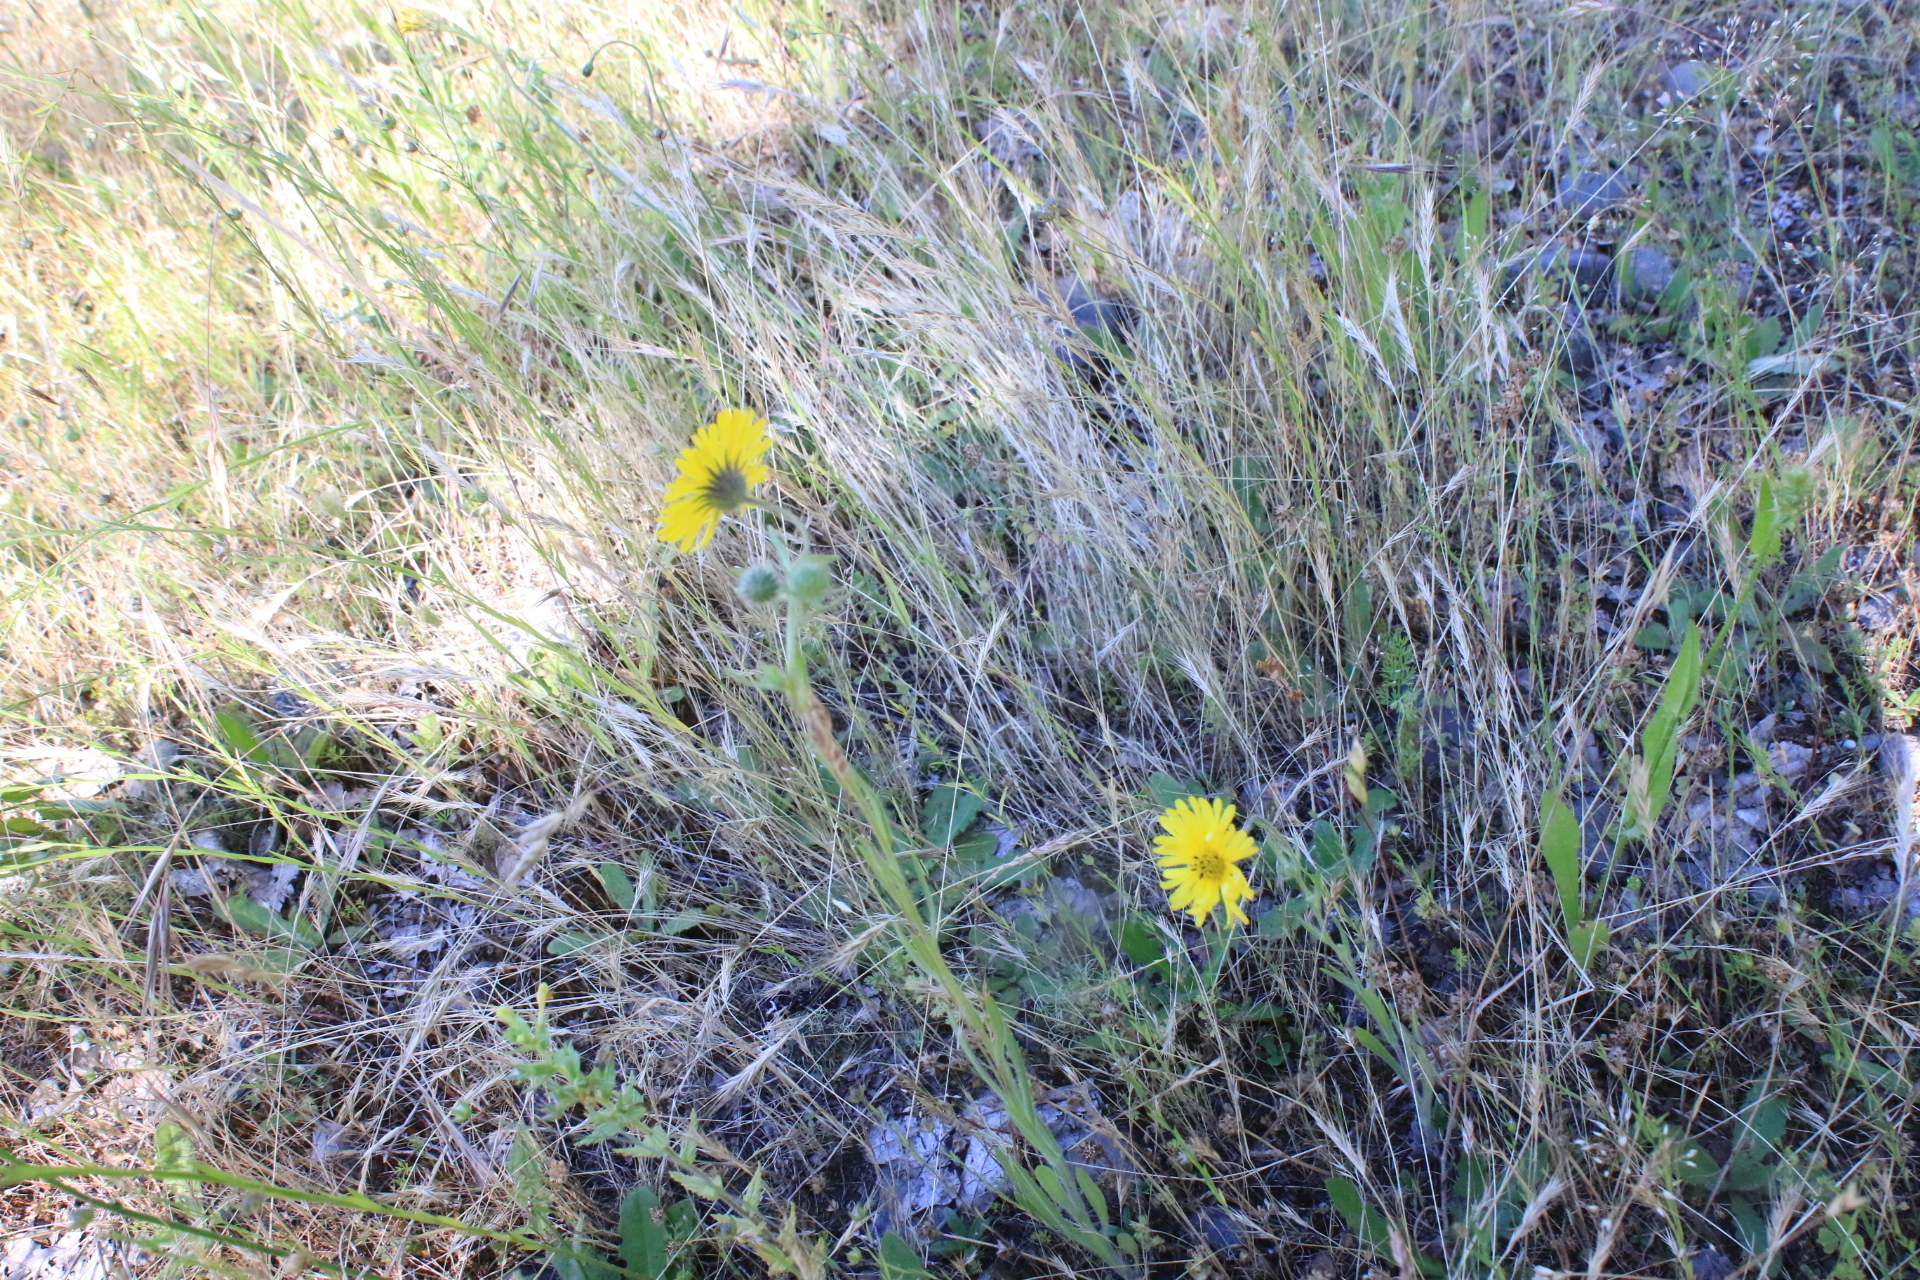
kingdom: Plantae
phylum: Tracheophyta
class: Magnoliopsida
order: Asterales
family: Asteraceae
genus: Madia
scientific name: Madia elegans
